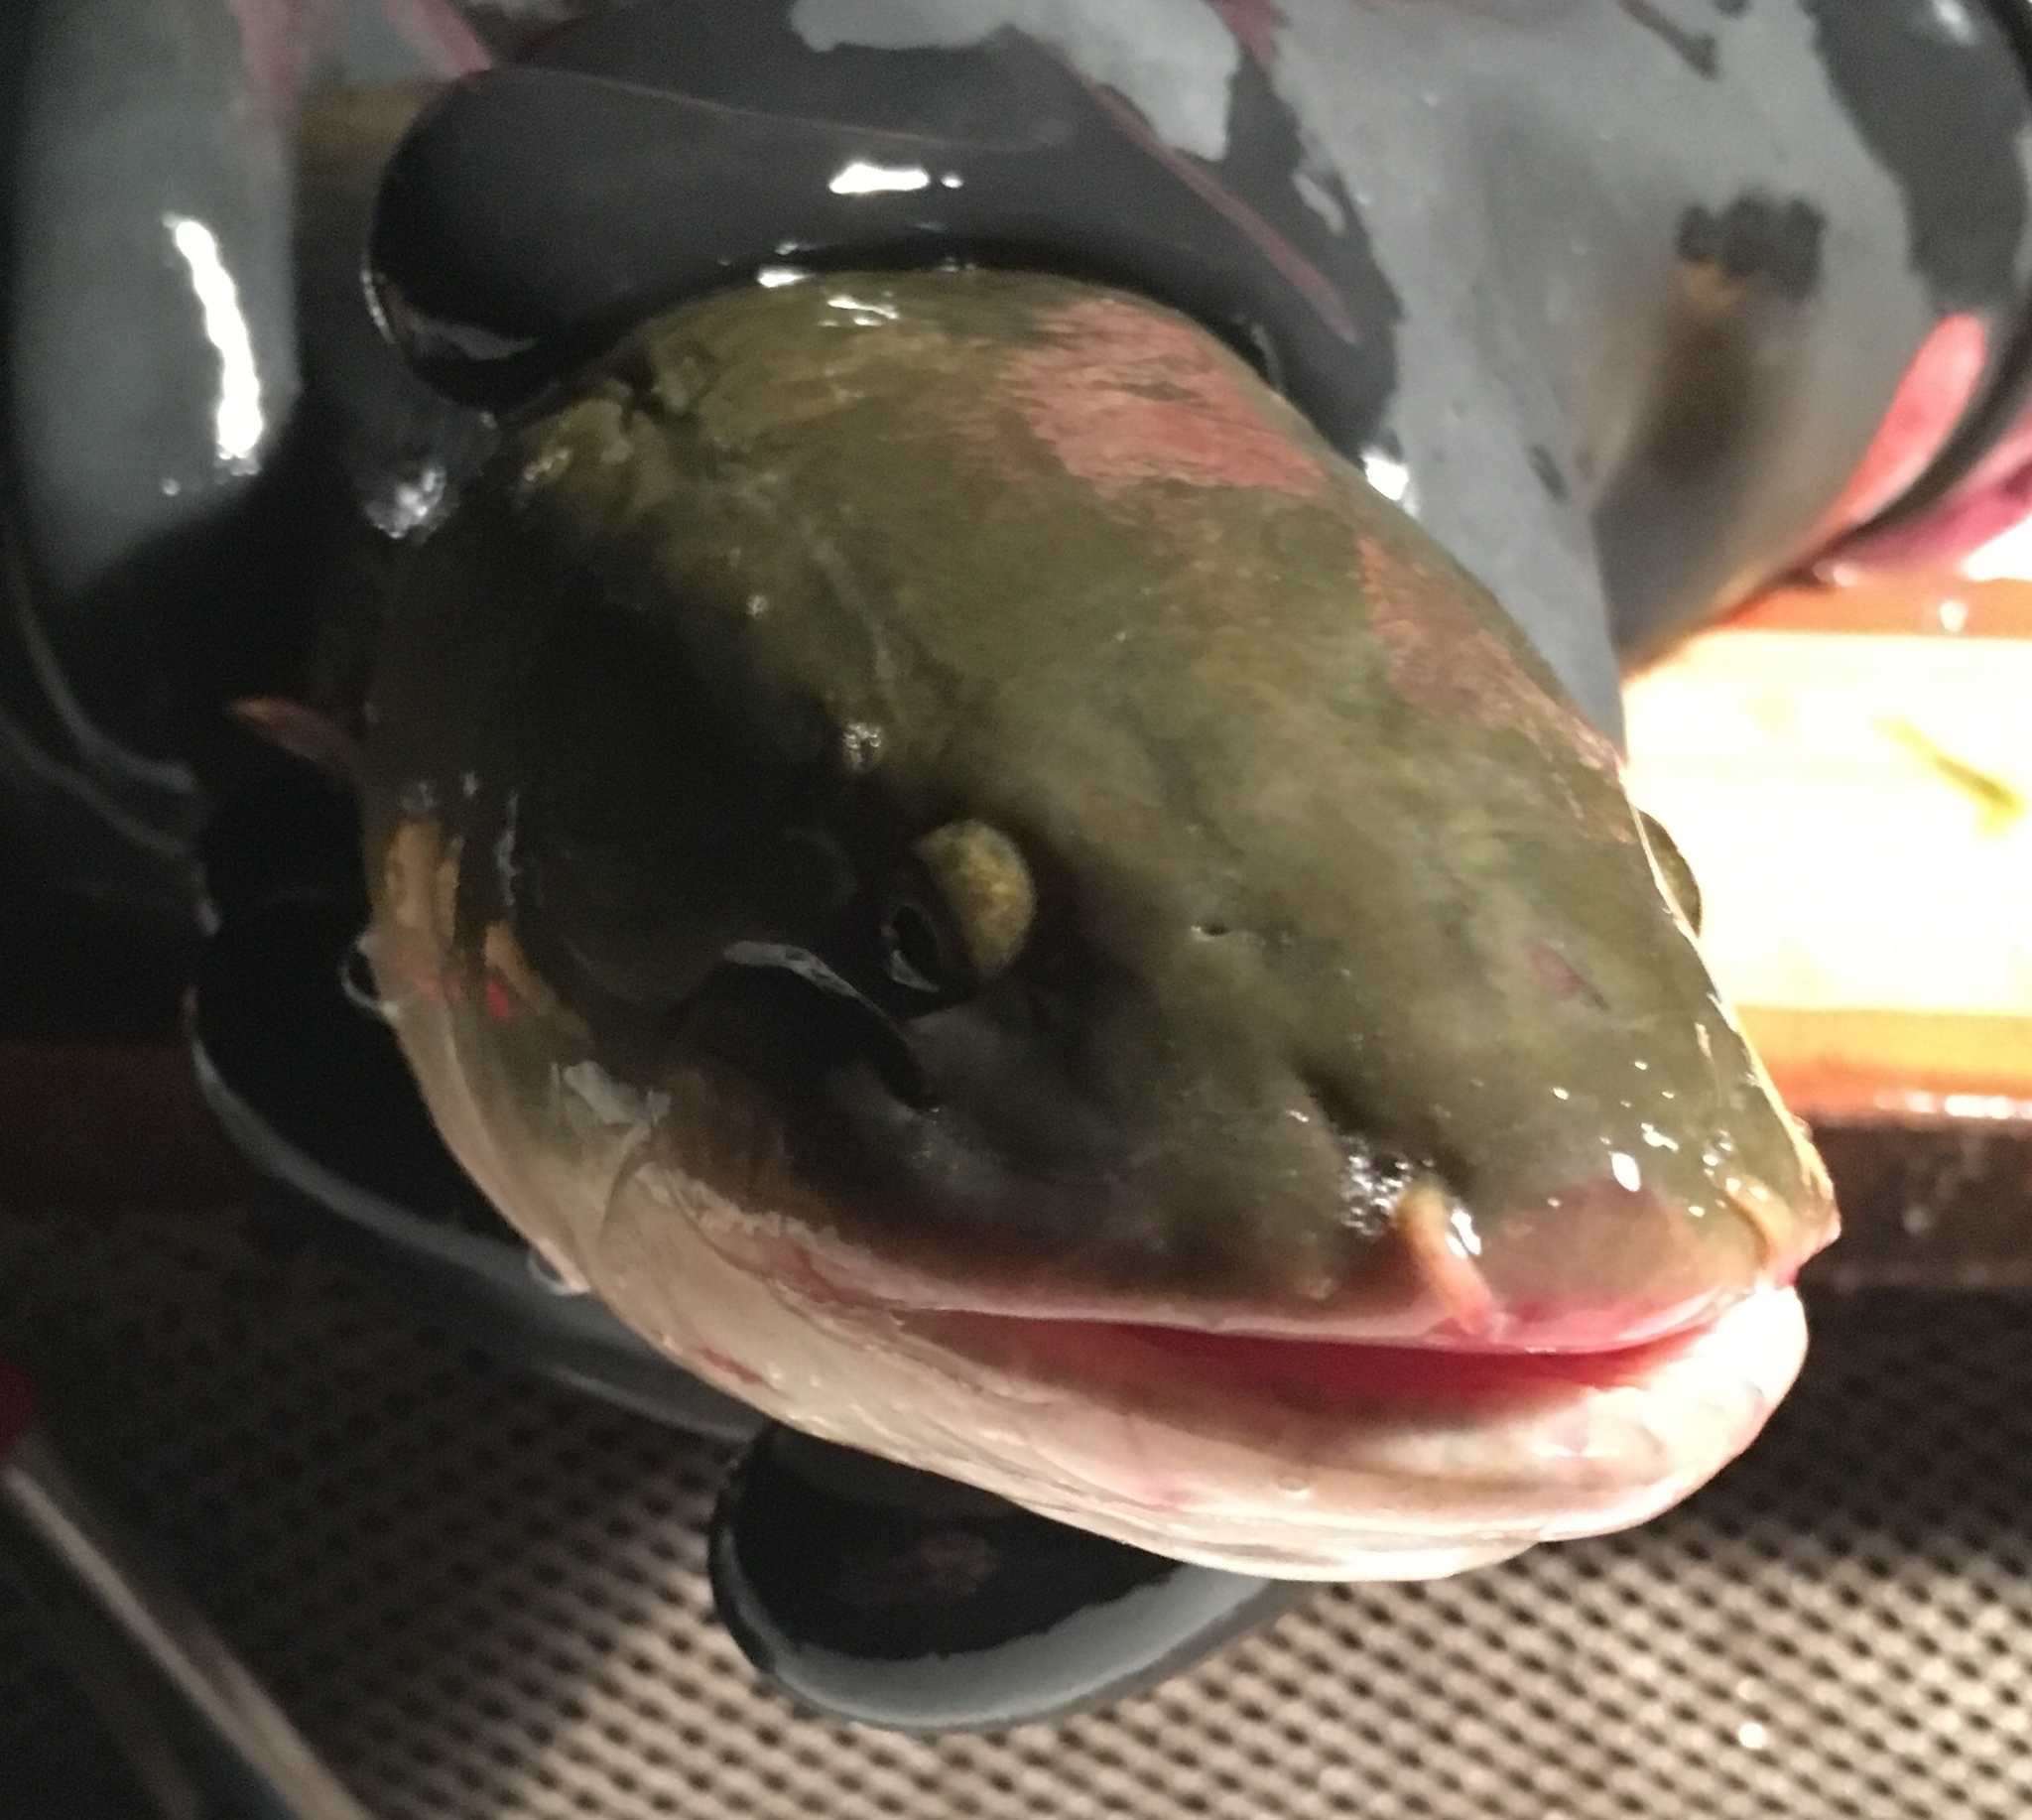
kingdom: Animalia
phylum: Chordata
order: Amiiformes
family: Amiidae
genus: Amia
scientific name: Amia calva
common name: Bowfin
